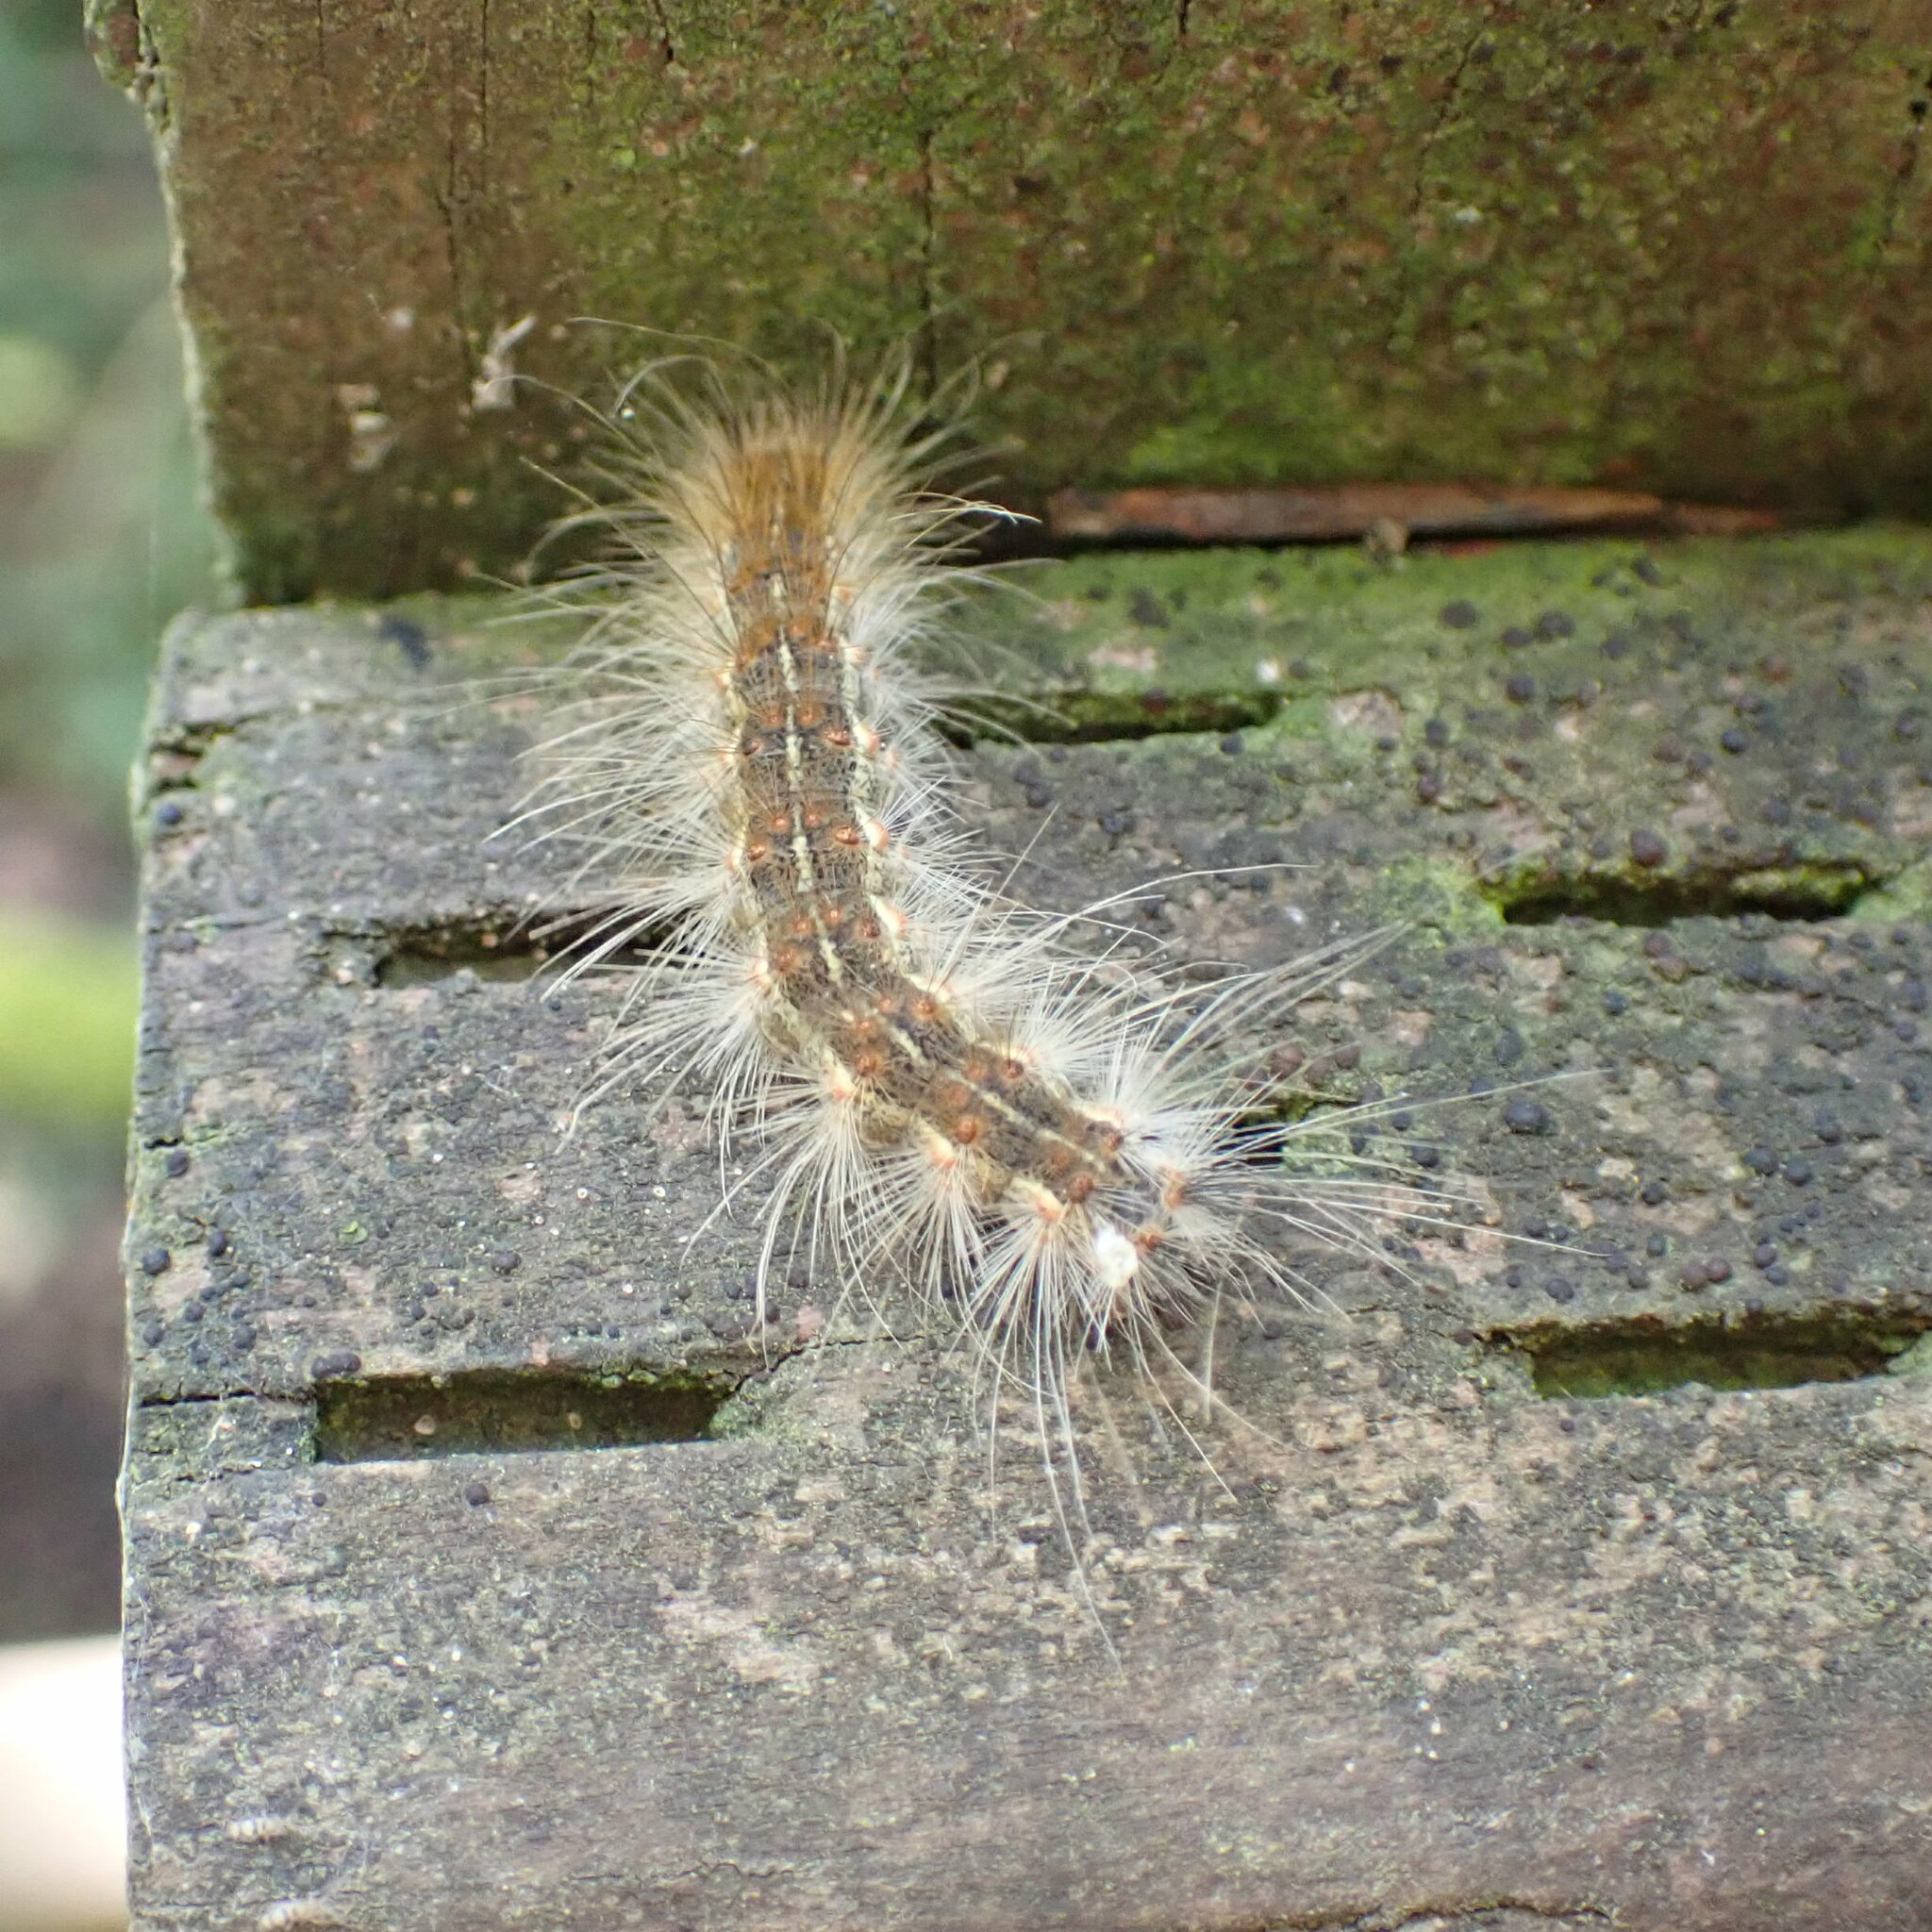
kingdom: Animalia
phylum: Arthropoda
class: Insecta
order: Lepidoptera
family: Erebidae
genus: Hyphantria
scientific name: Hyphantria cunea
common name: American white moth
